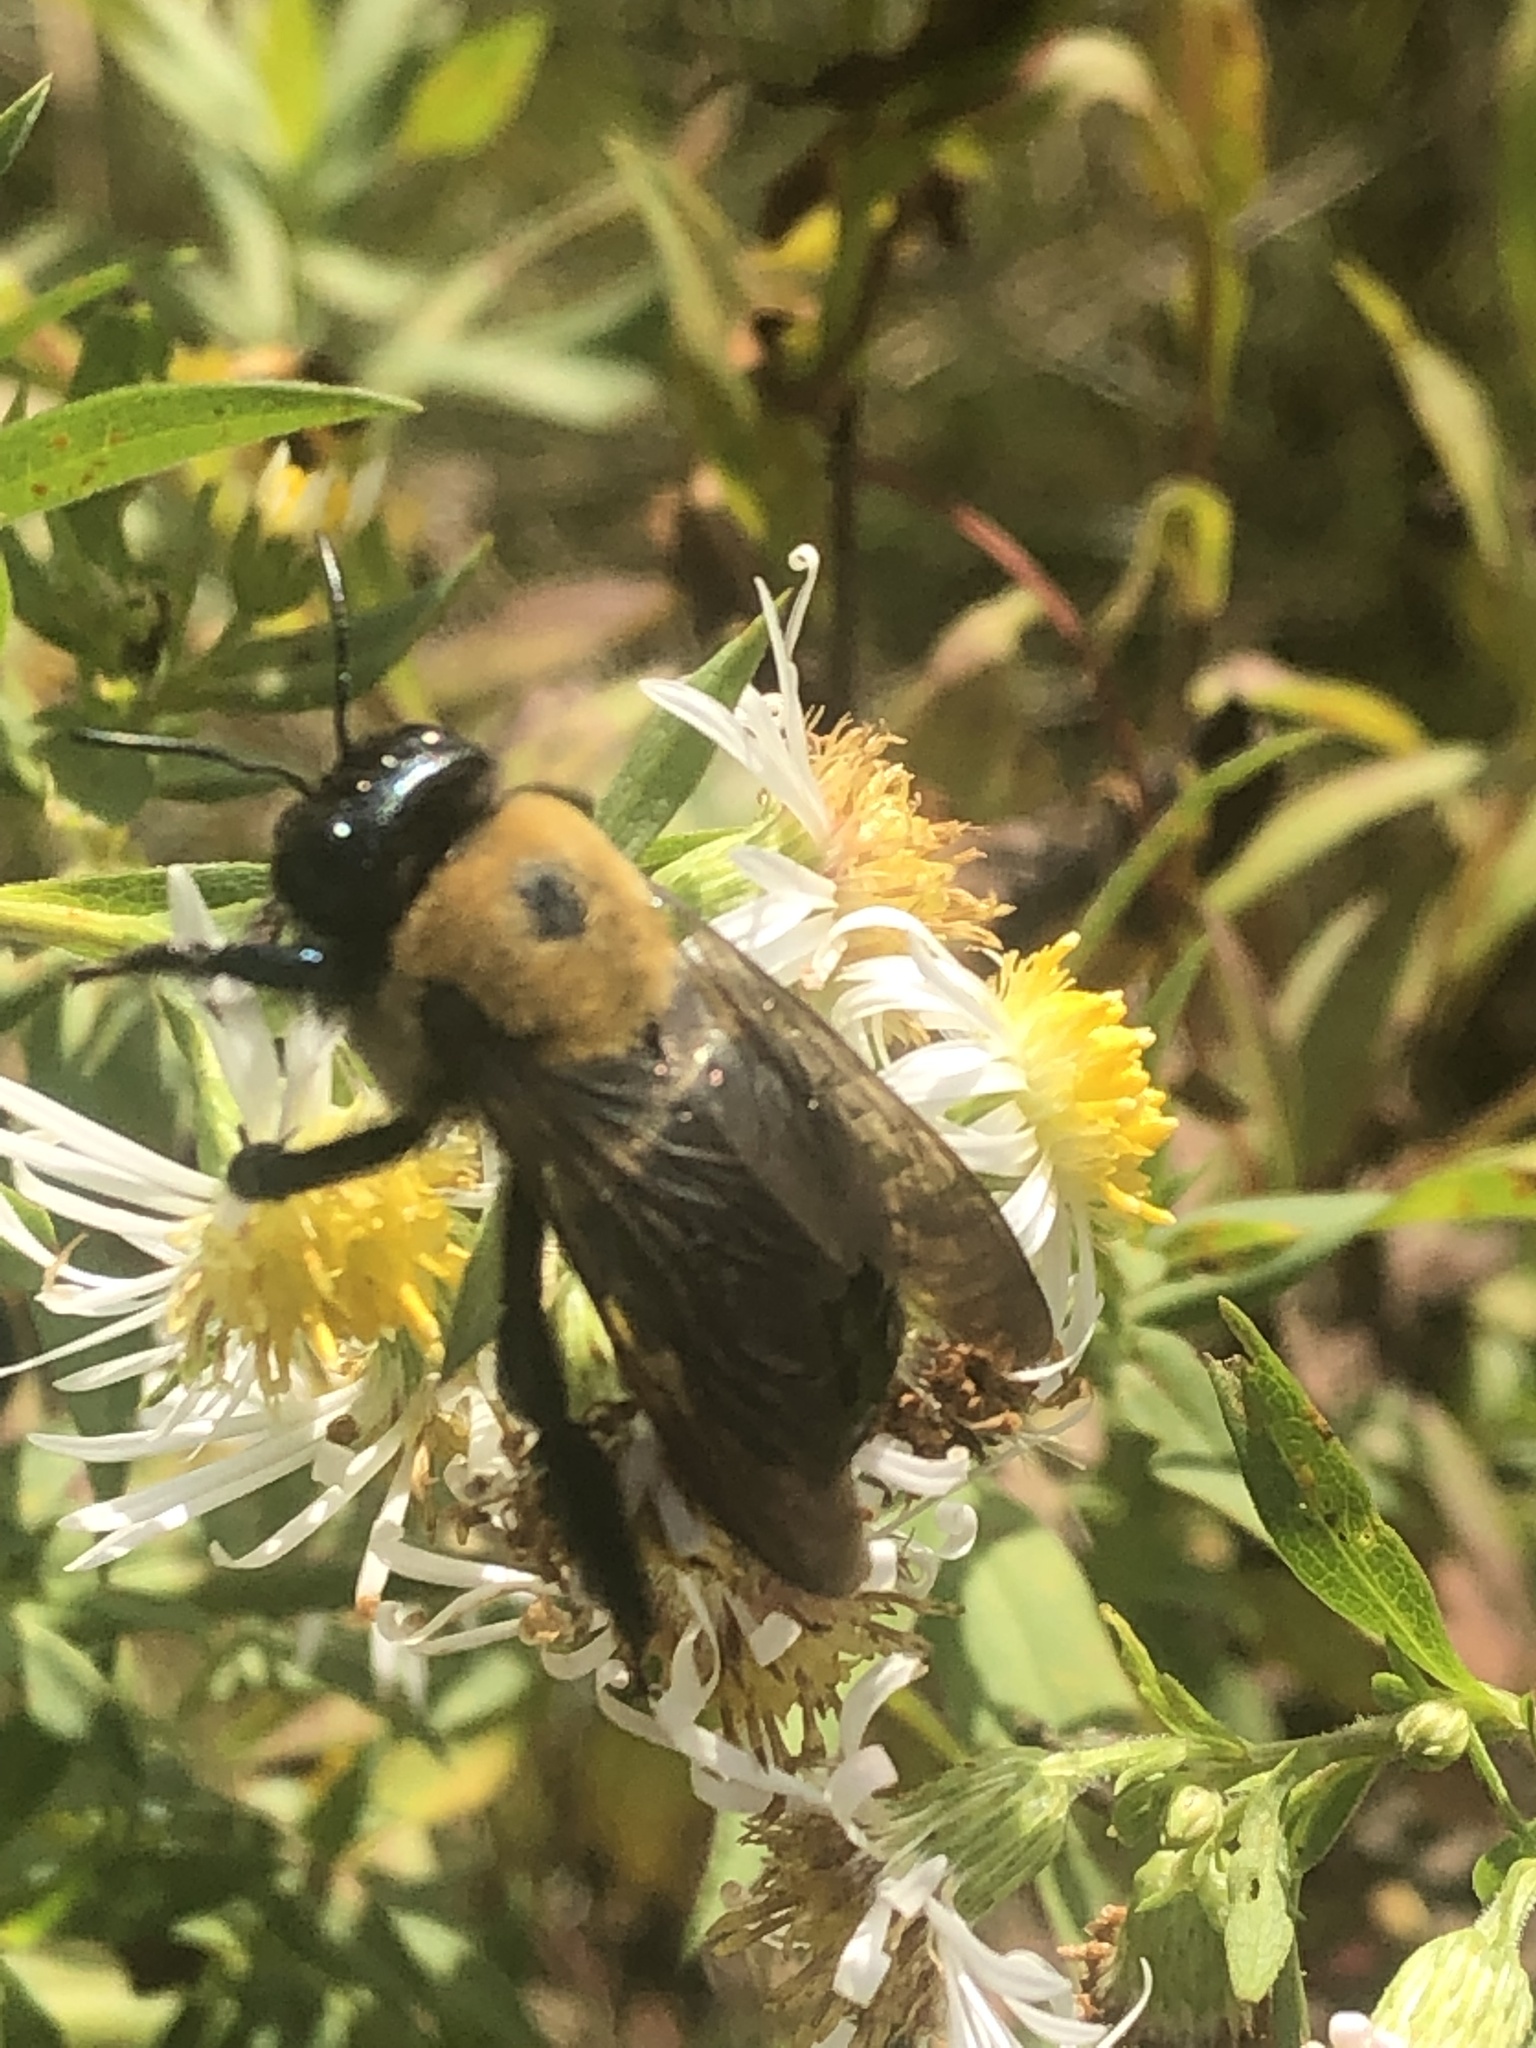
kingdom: Animalia
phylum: Arthropoda
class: Insecta
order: Hymenoptera
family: Apidae
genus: Xylocopa
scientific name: Xylocopa virginica
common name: Carpenter bee
